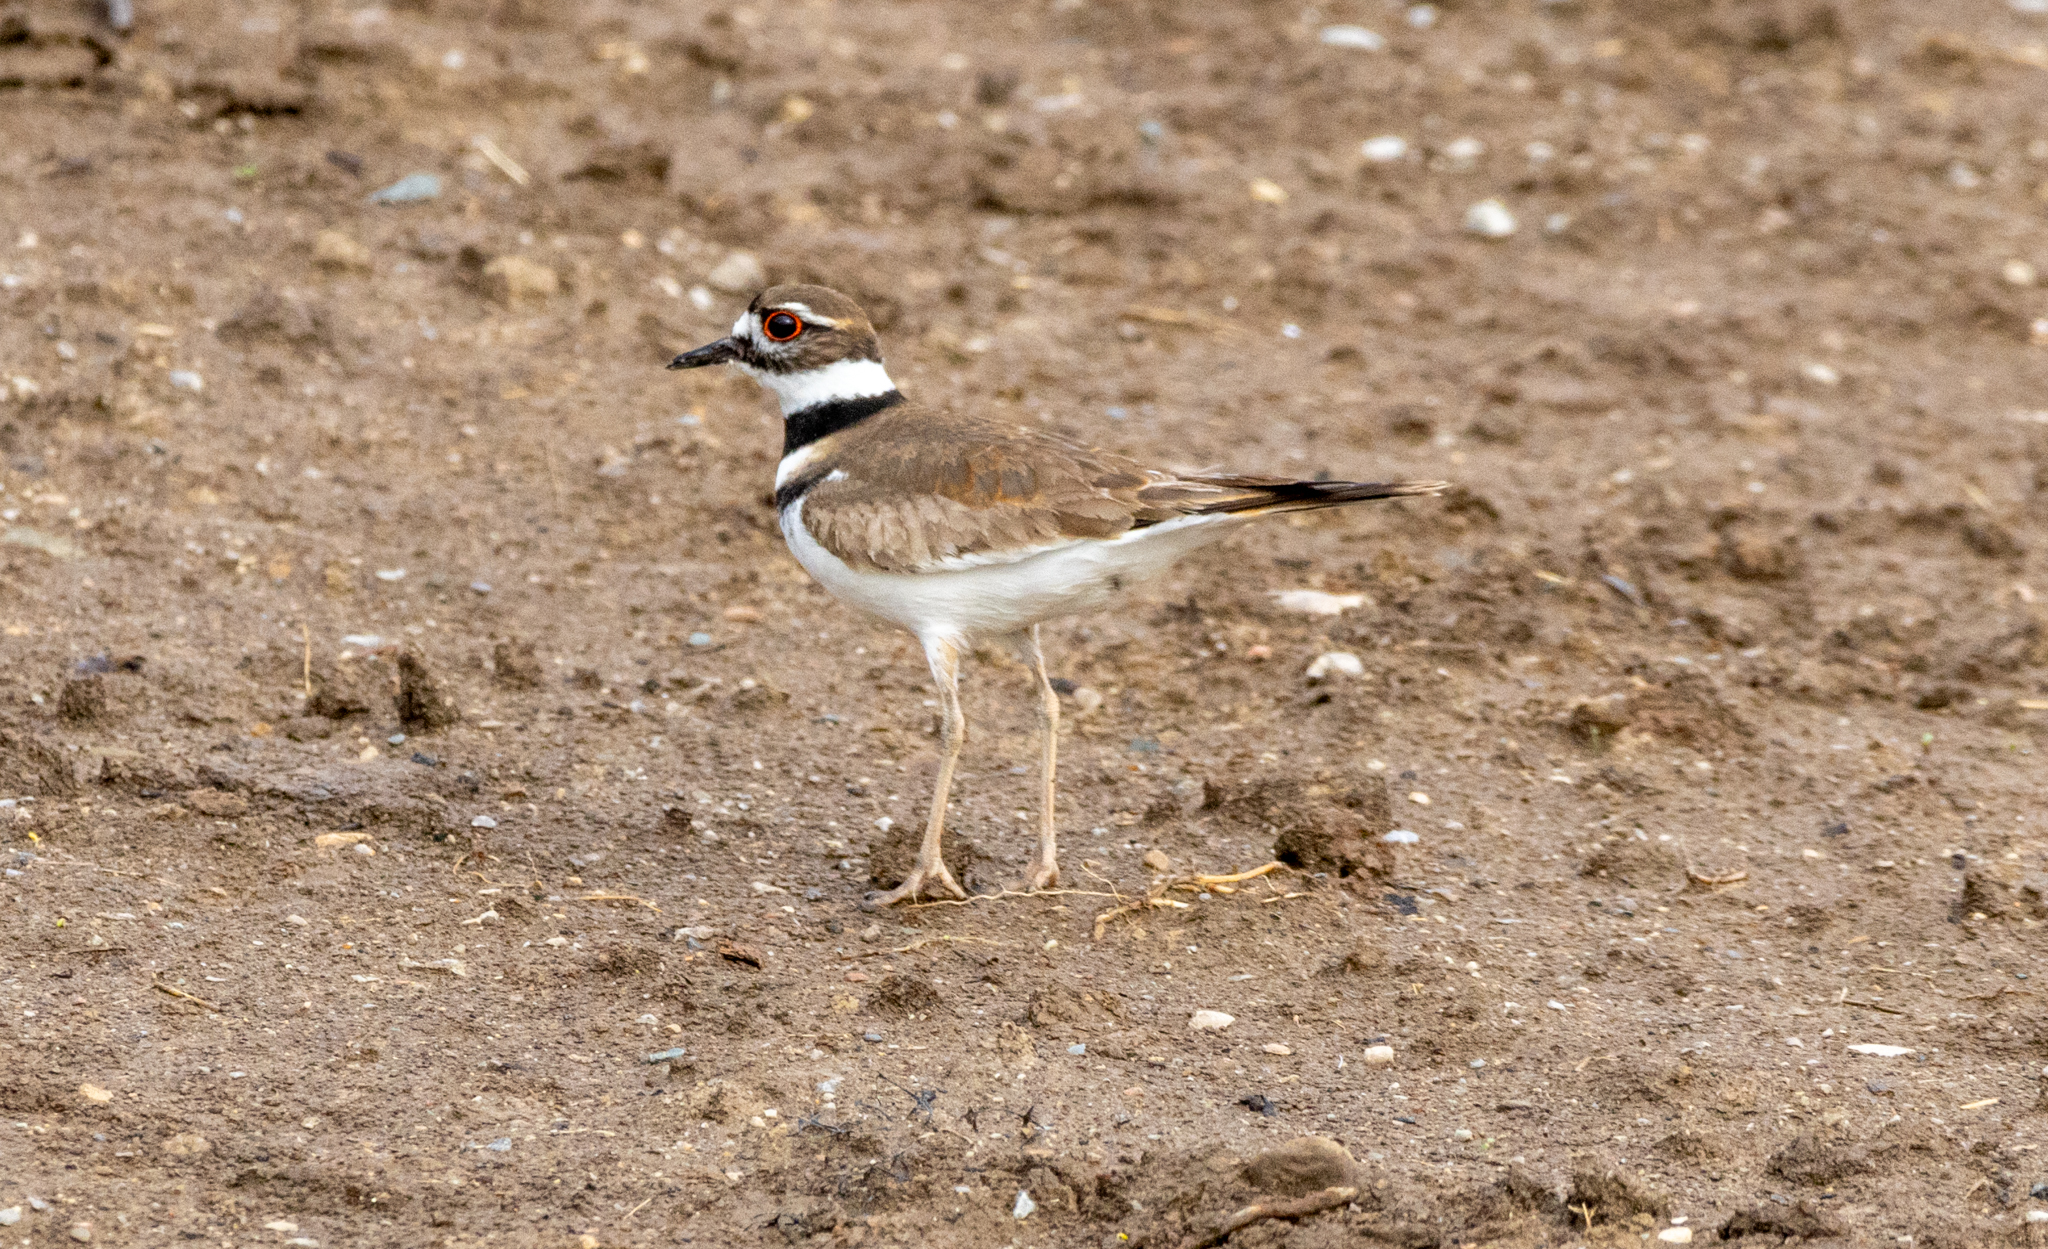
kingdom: Animalia
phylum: Chordata
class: Aves
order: Charadriiformes
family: Charadriidae
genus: Charadrius
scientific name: Charadrius vociferus
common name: Killdeer
